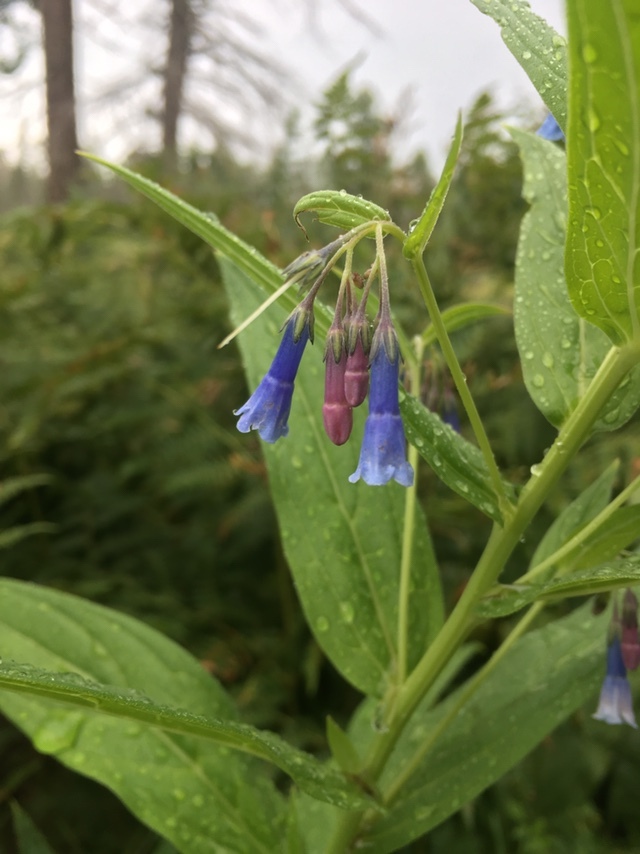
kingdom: Plantae
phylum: Tracheophyta
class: Magnoliopsida
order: Boraginales
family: Boraginaceae
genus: Mertensia
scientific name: Mertensia franciscana
